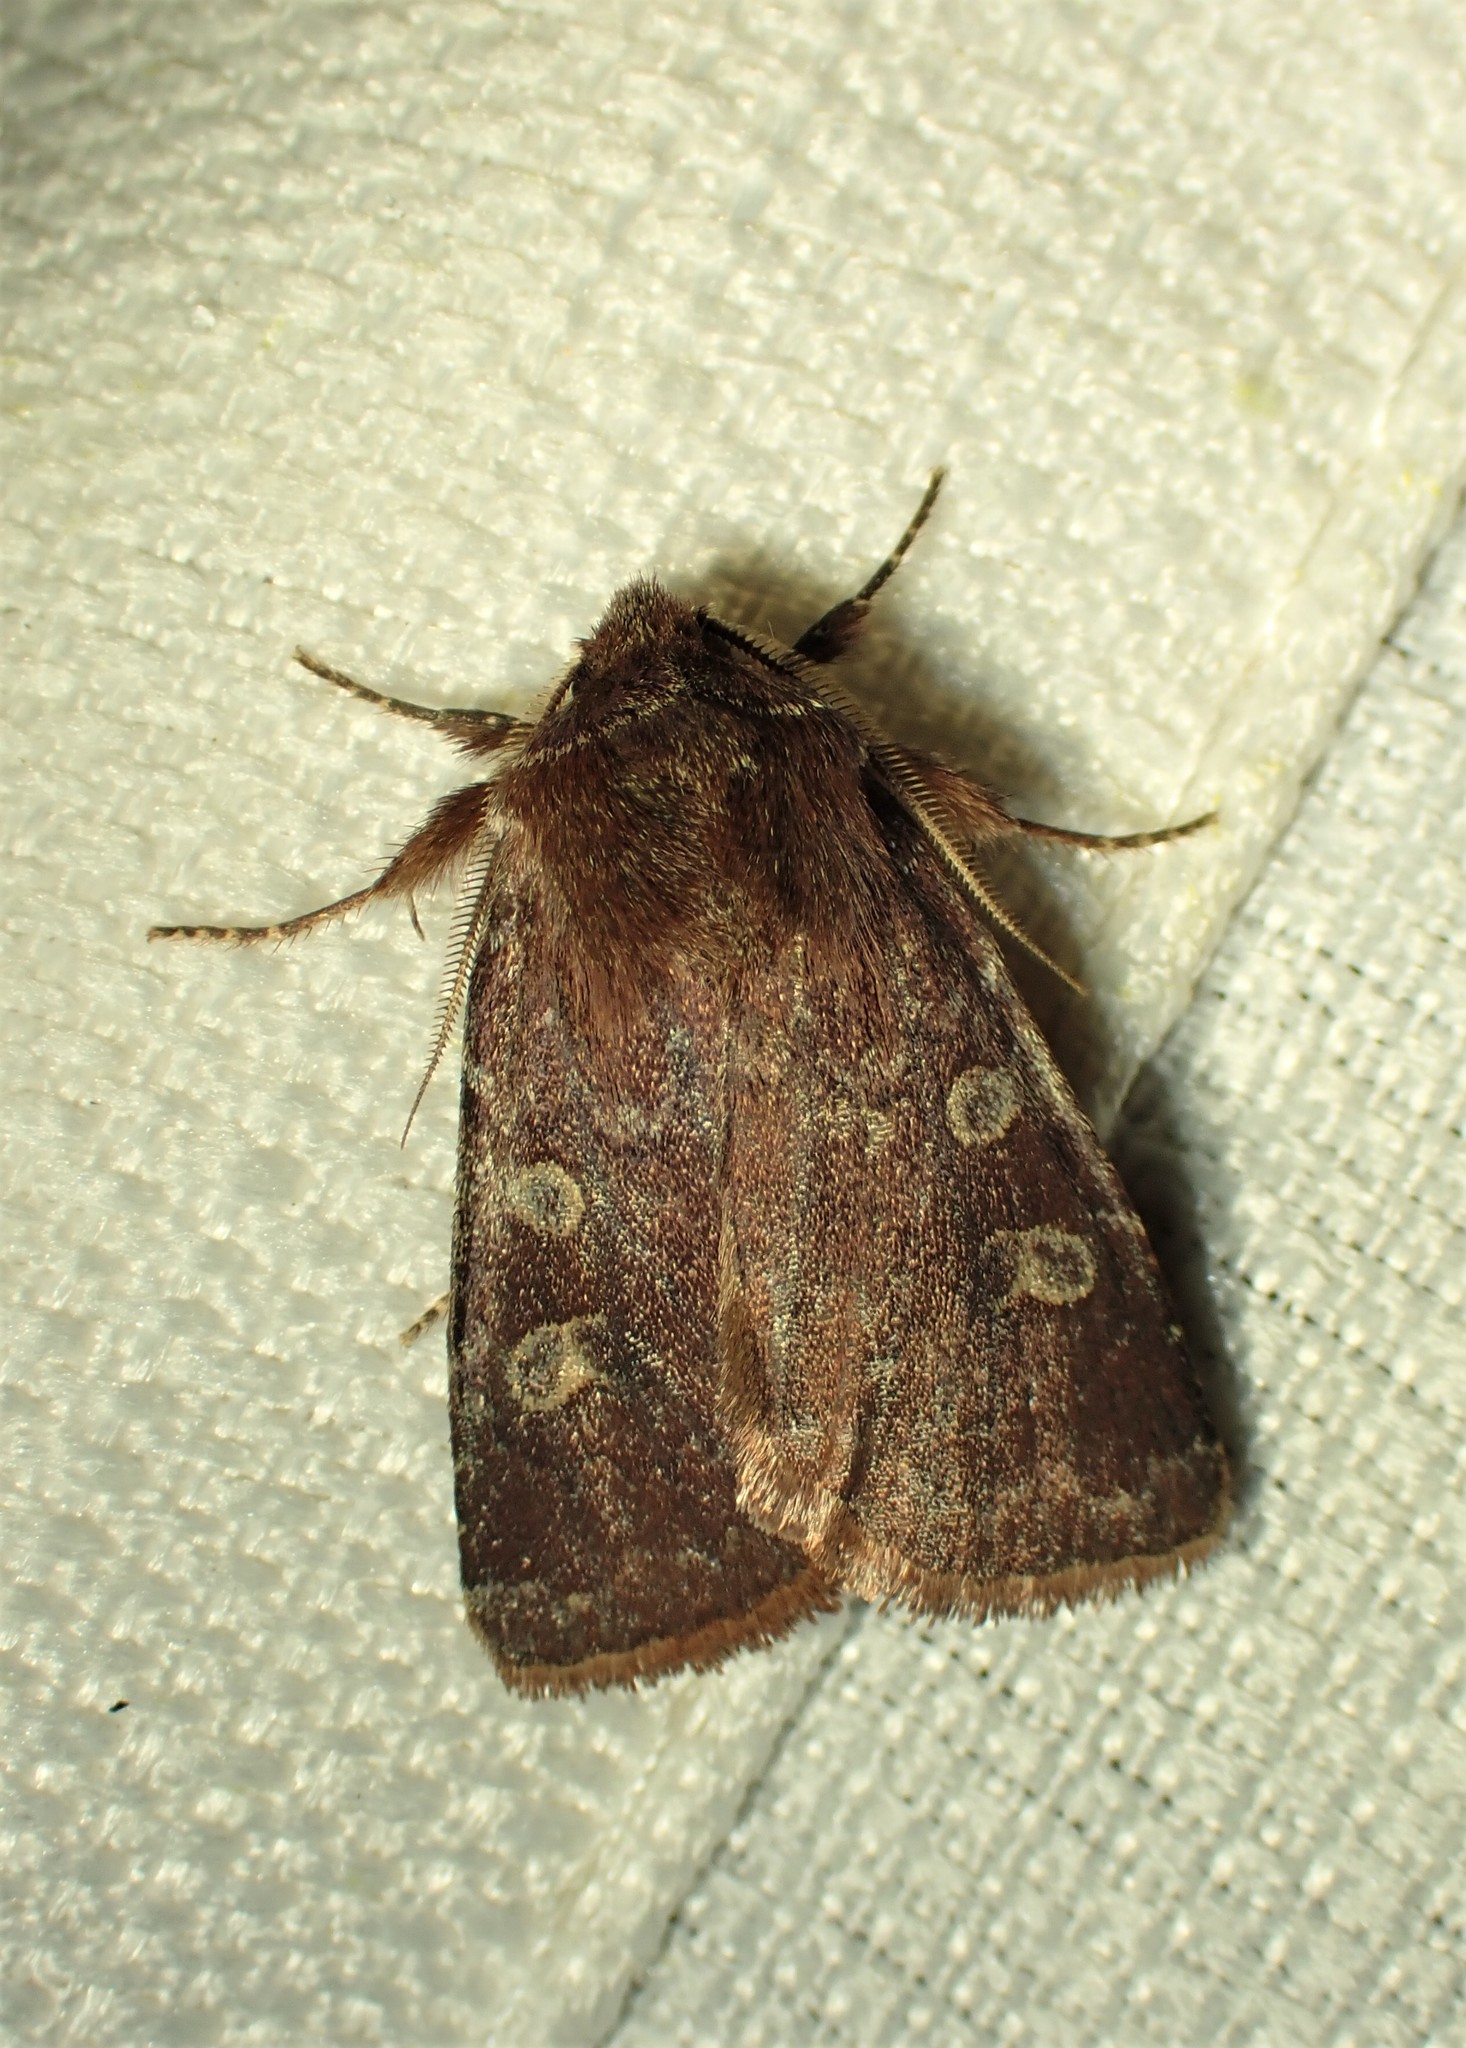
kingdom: Animalia
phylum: Arthropoda
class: Insecta
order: Lepidoptera
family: Noctuidae
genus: Cerastis
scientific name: Cerastis tenebrifera
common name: Reddish speckled dart
